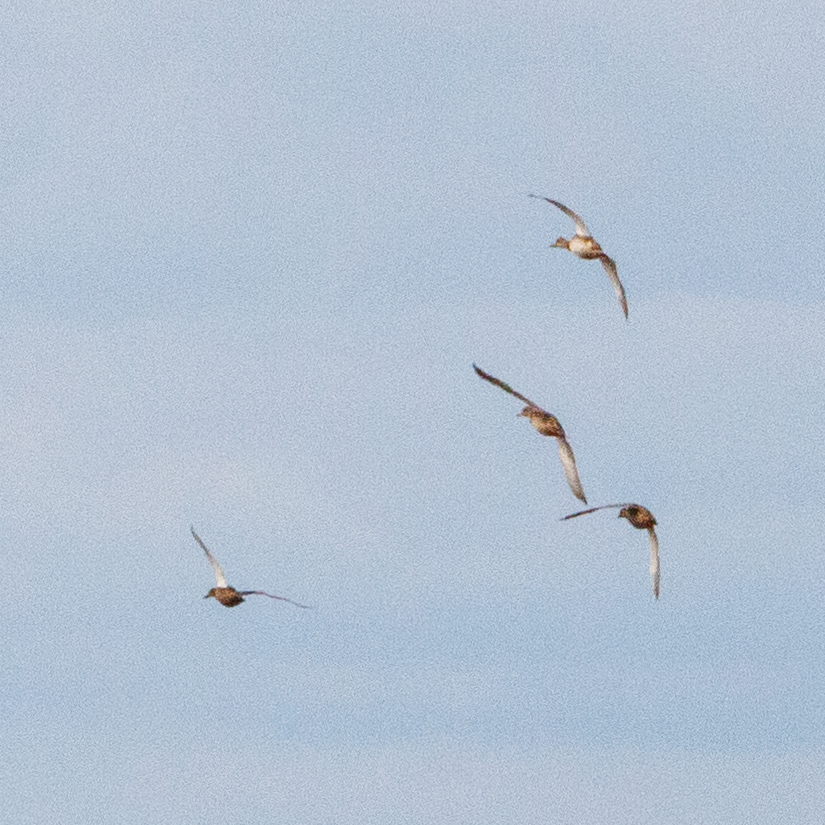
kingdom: Animalia
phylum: Chordata
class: Aves
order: Anseriformes
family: Anatidae
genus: Spatula
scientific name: Spatula querquedula
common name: Garganey
